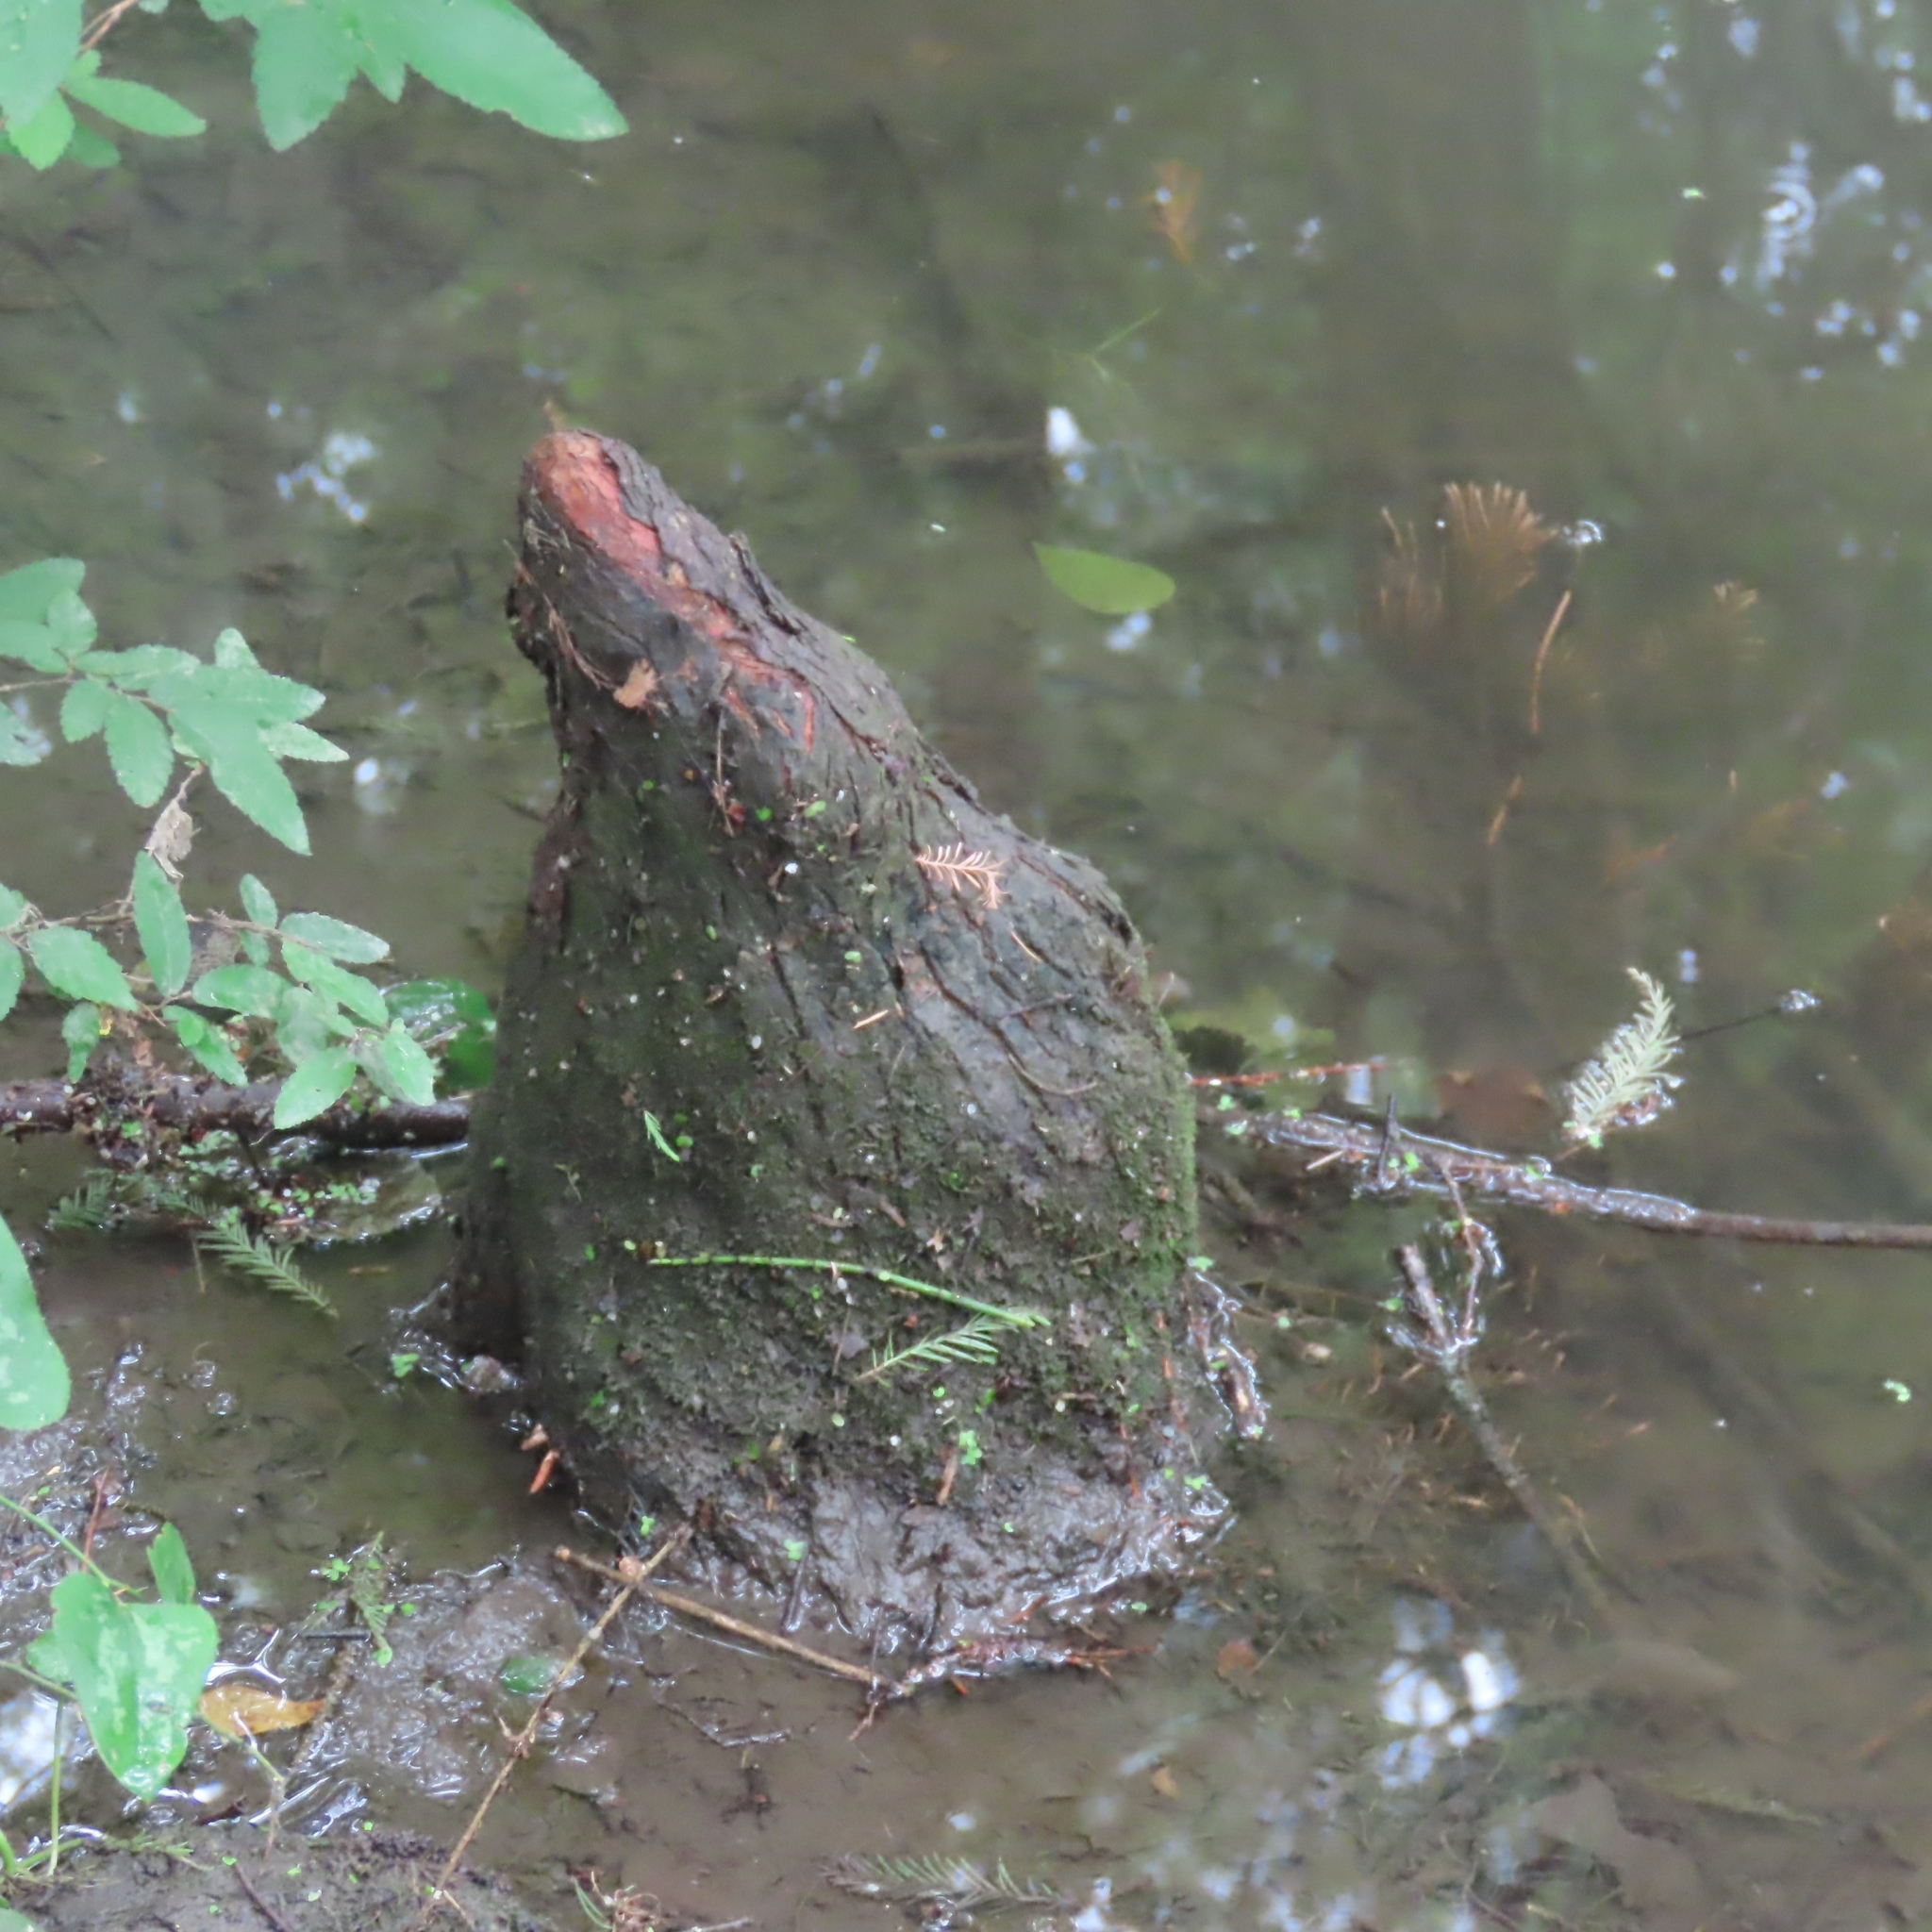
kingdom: Plantae
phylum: Tracheophyta
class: Pinopsida
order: Pinales
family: Cupressaceae
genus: Taxodium
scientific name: Taxodium distichum
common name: Bald cypress
